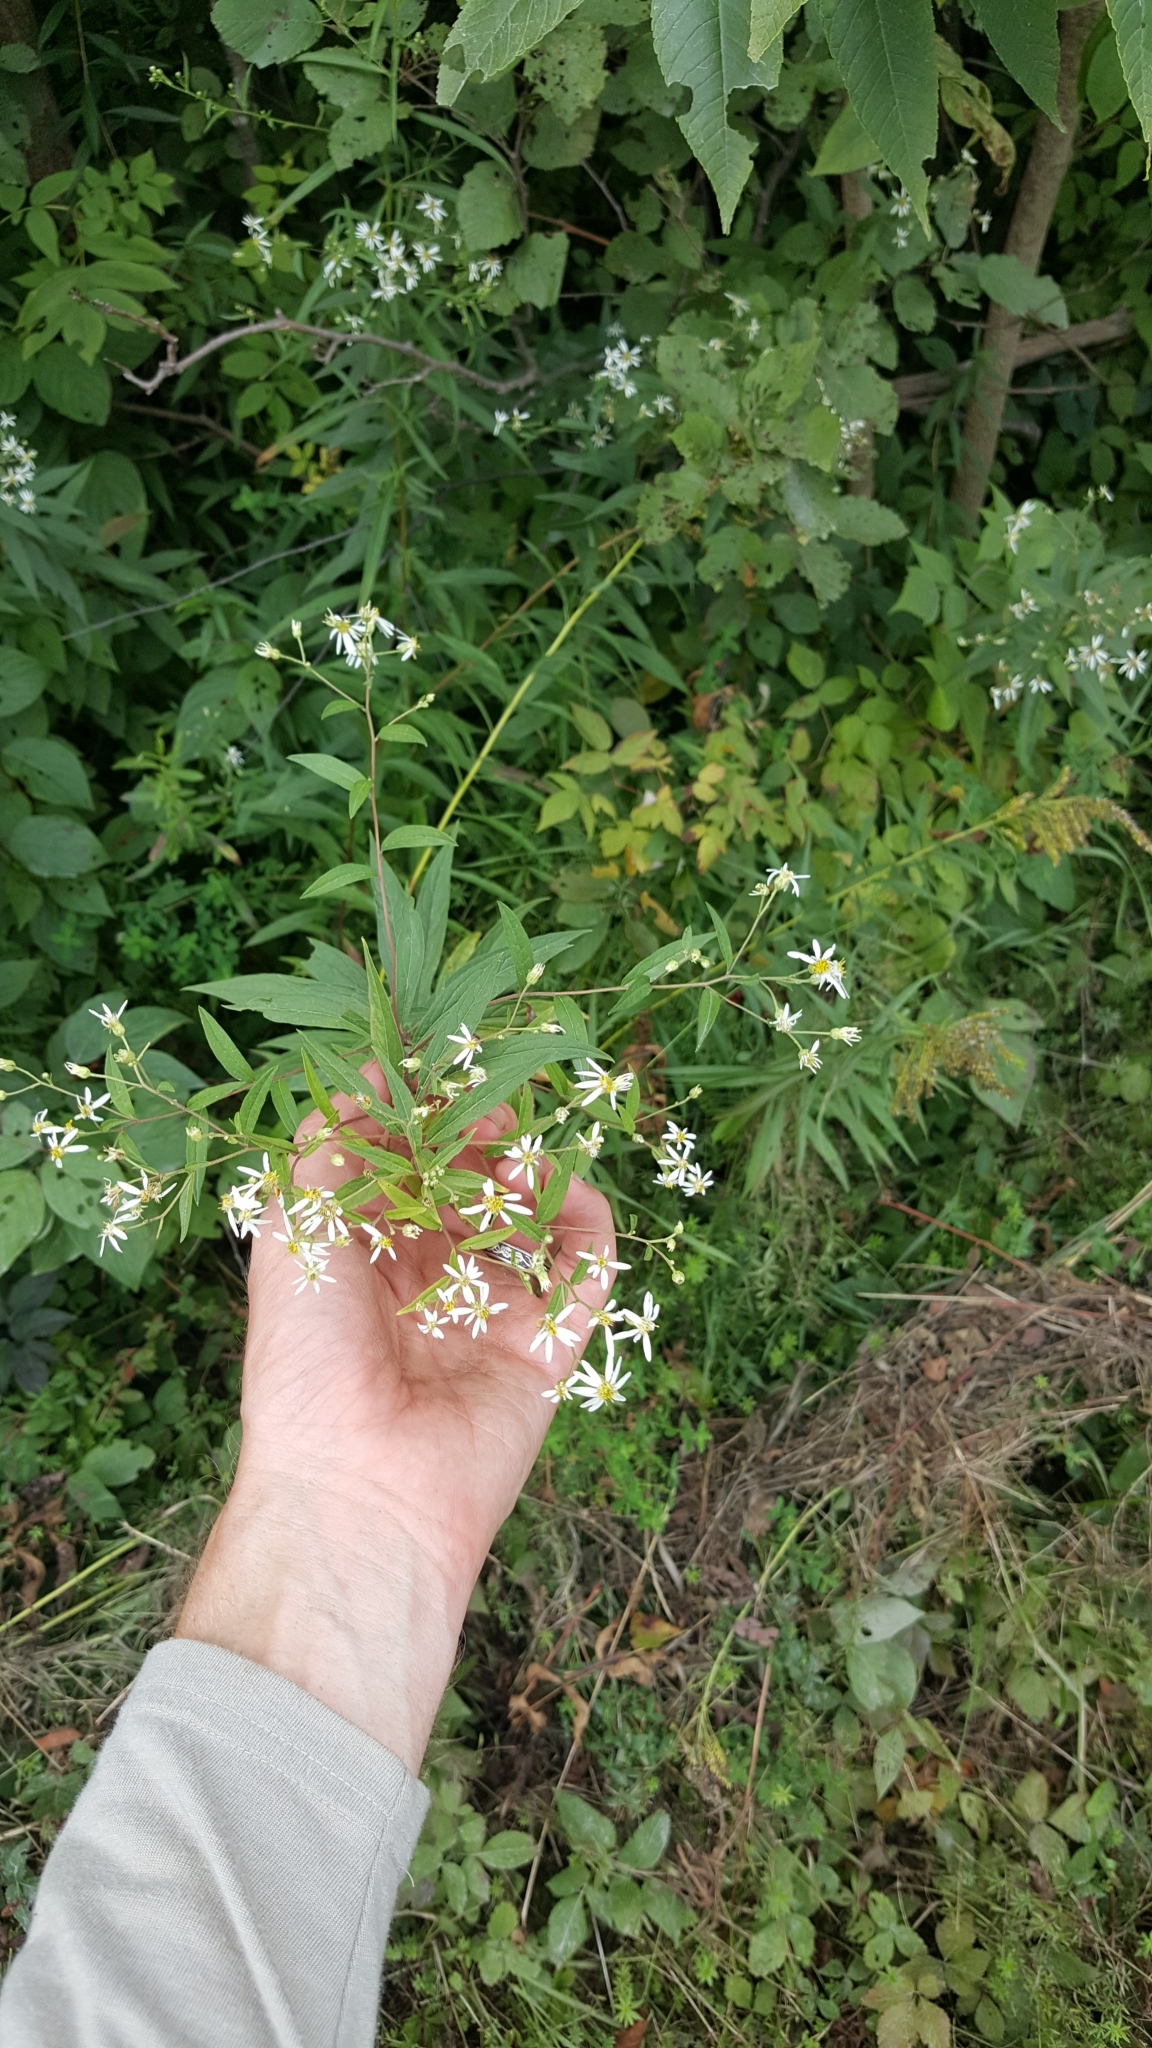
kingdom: Plantae
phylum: Tracheophyta
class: Magnoliopsida
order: Asterales
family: Asteraceae
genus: Doellingeria
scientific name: Doellingeria umbellata
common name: Flat-top white aster
